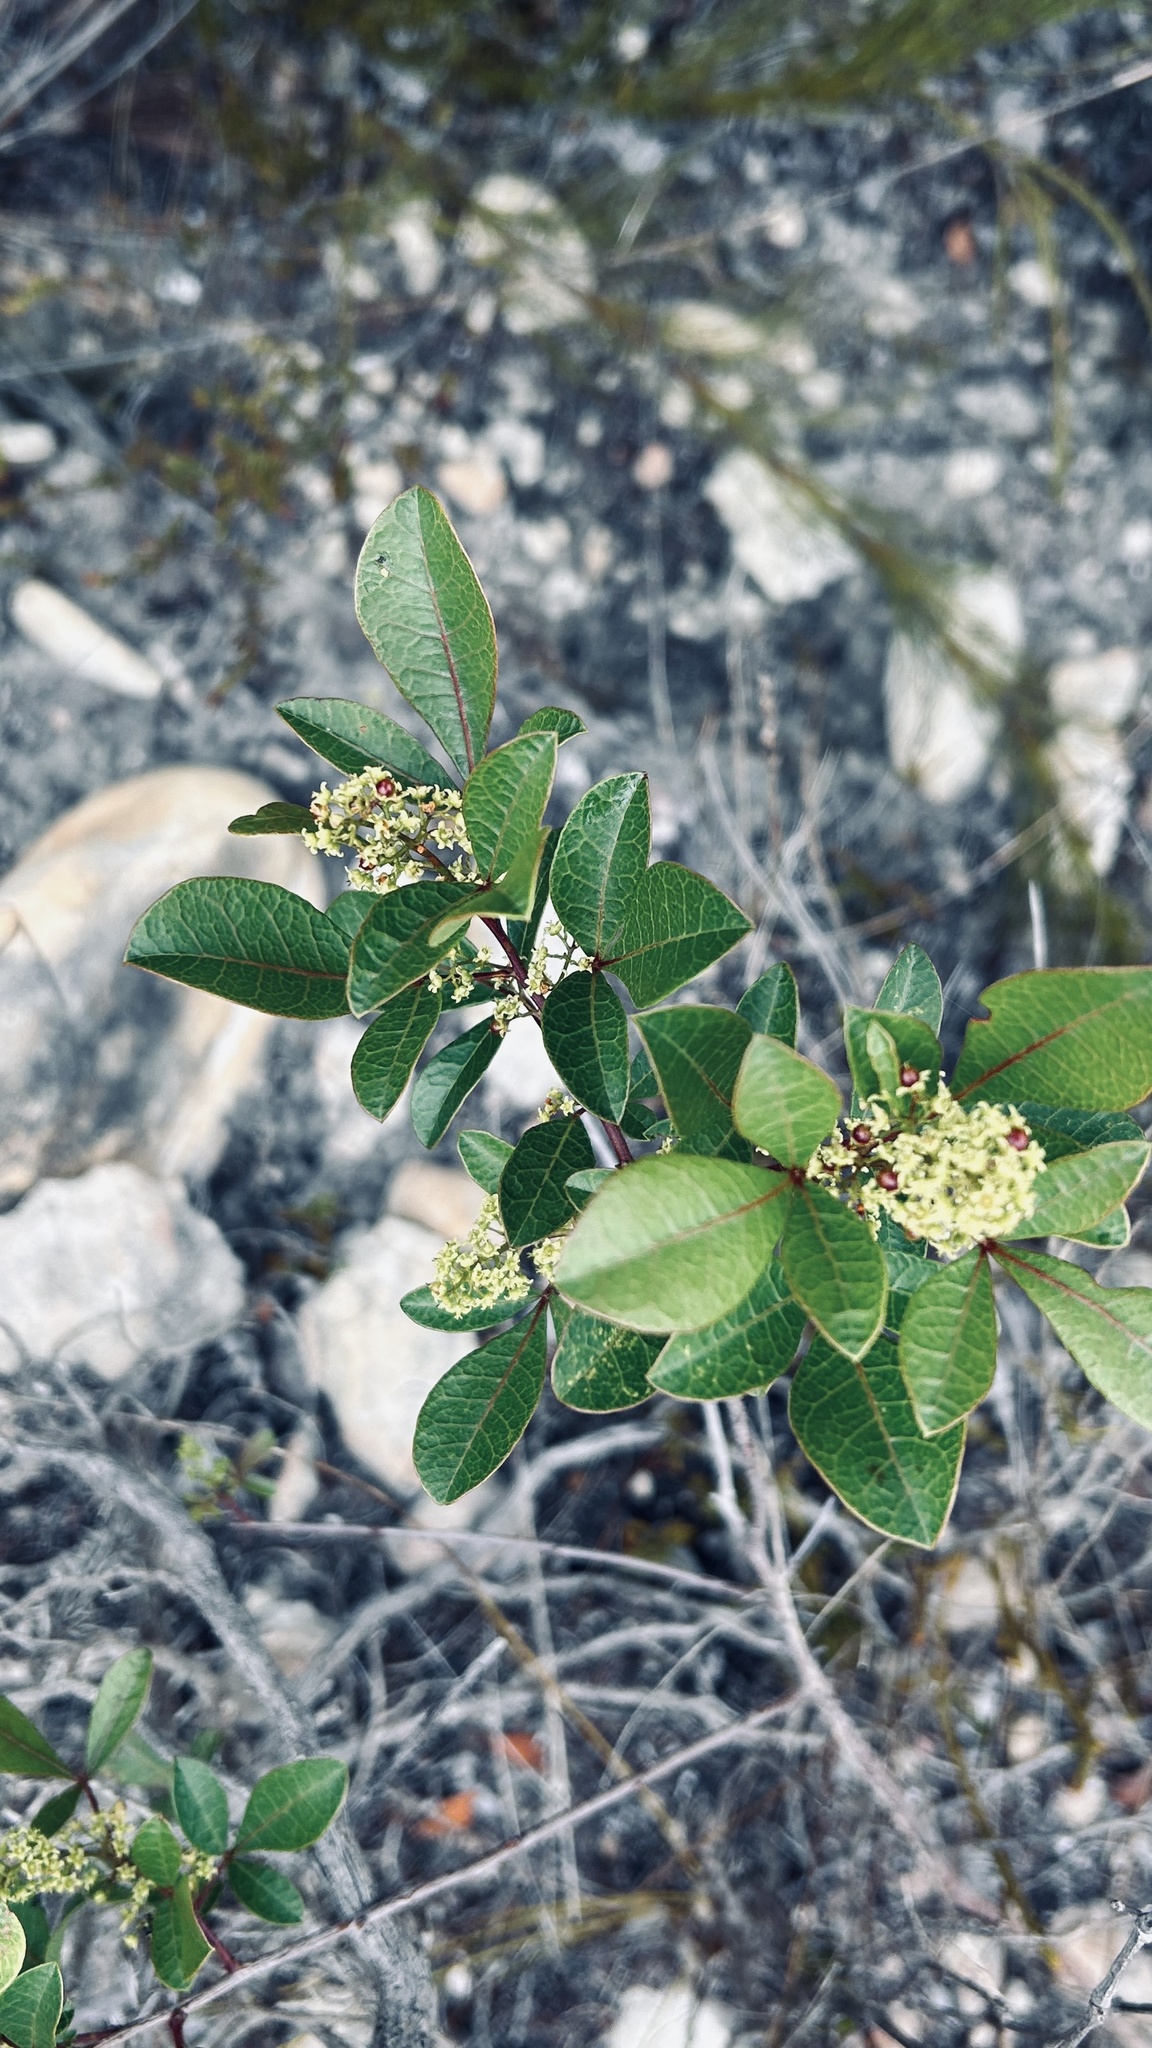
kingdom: Plantae
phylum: Tracheophyta
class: Magnoliopsida
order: Sapindales
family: Anacardiaceae
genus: Searsia
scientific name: Searsia laevigata
